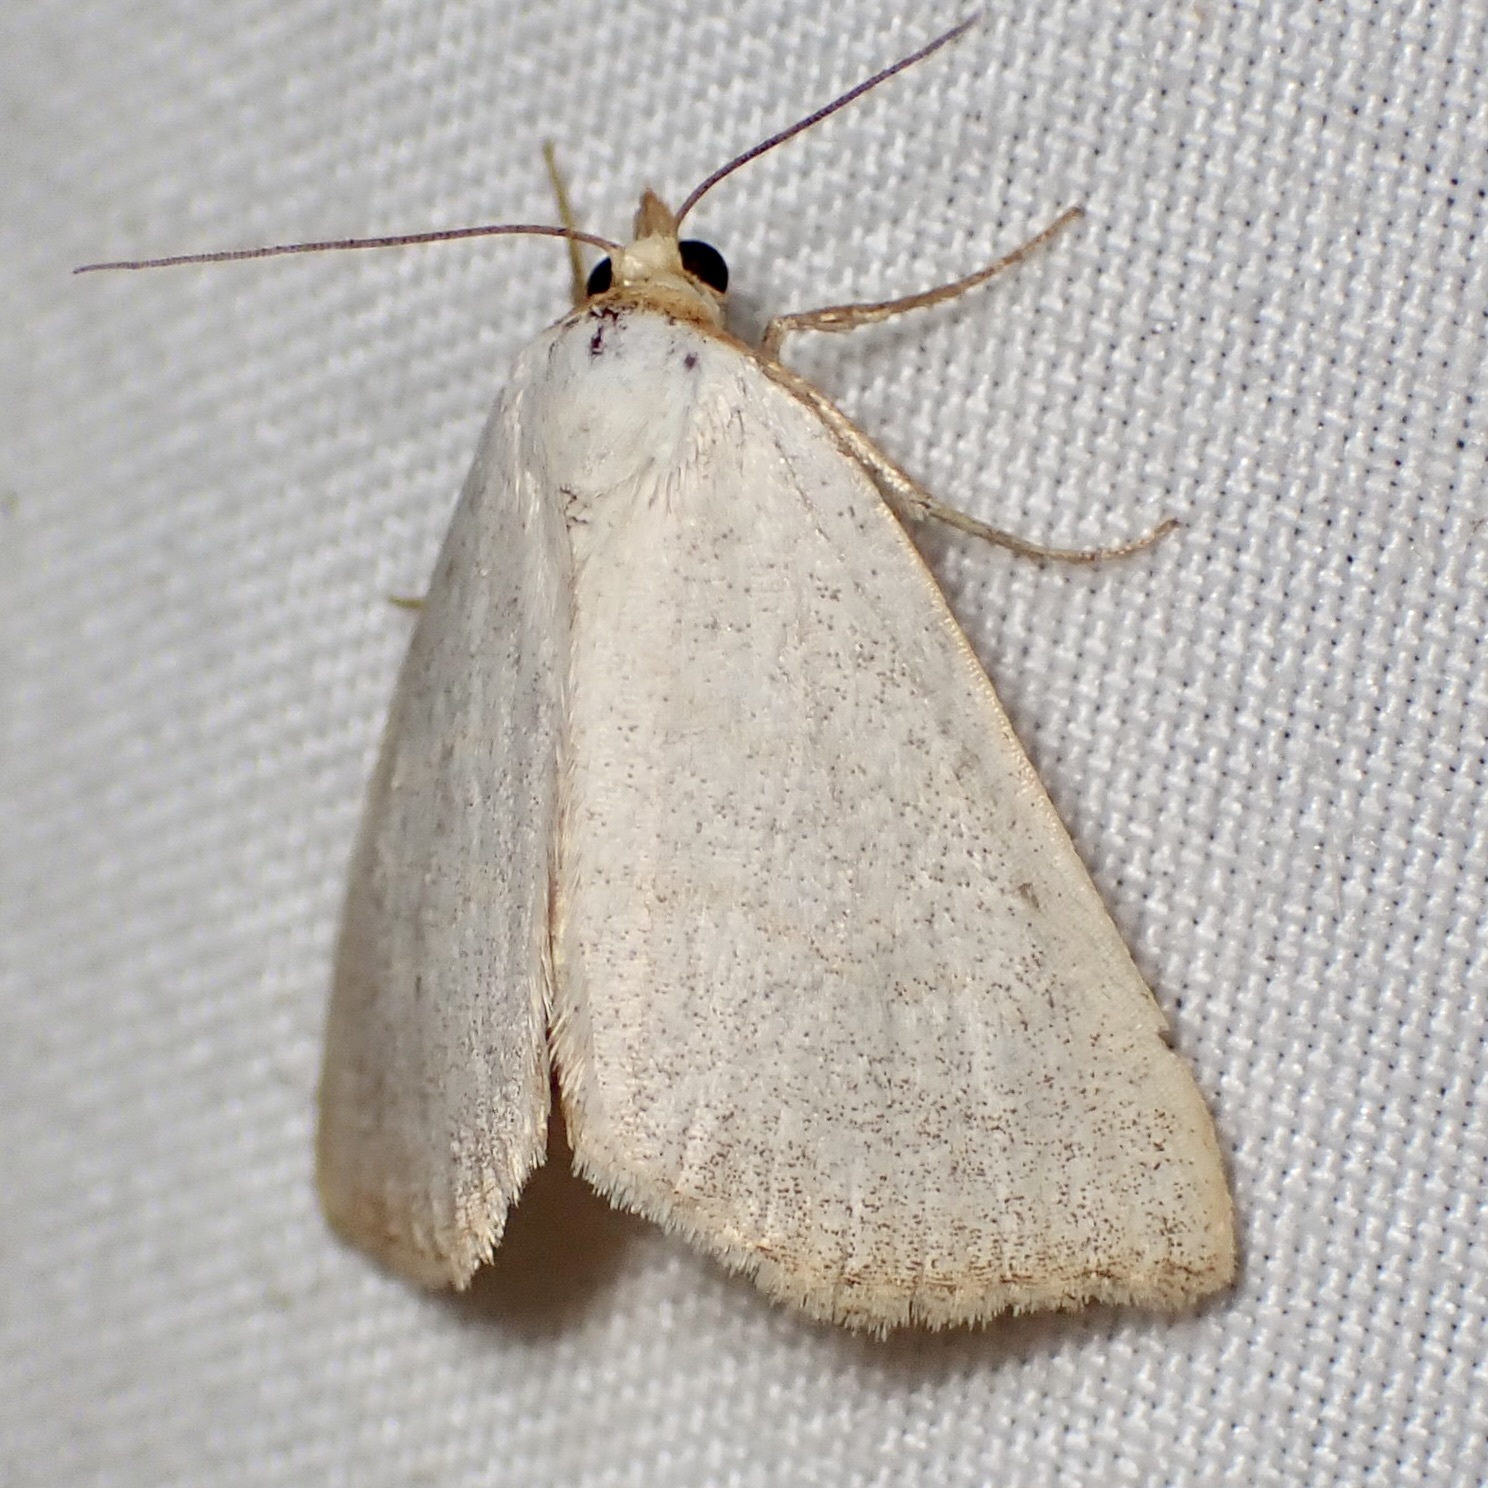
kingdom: Animalia
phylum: Arthropoda
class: Insecta
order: Lepidoptera
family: Erebidae
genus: Oxycilla
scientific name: Oxycilla tripla
